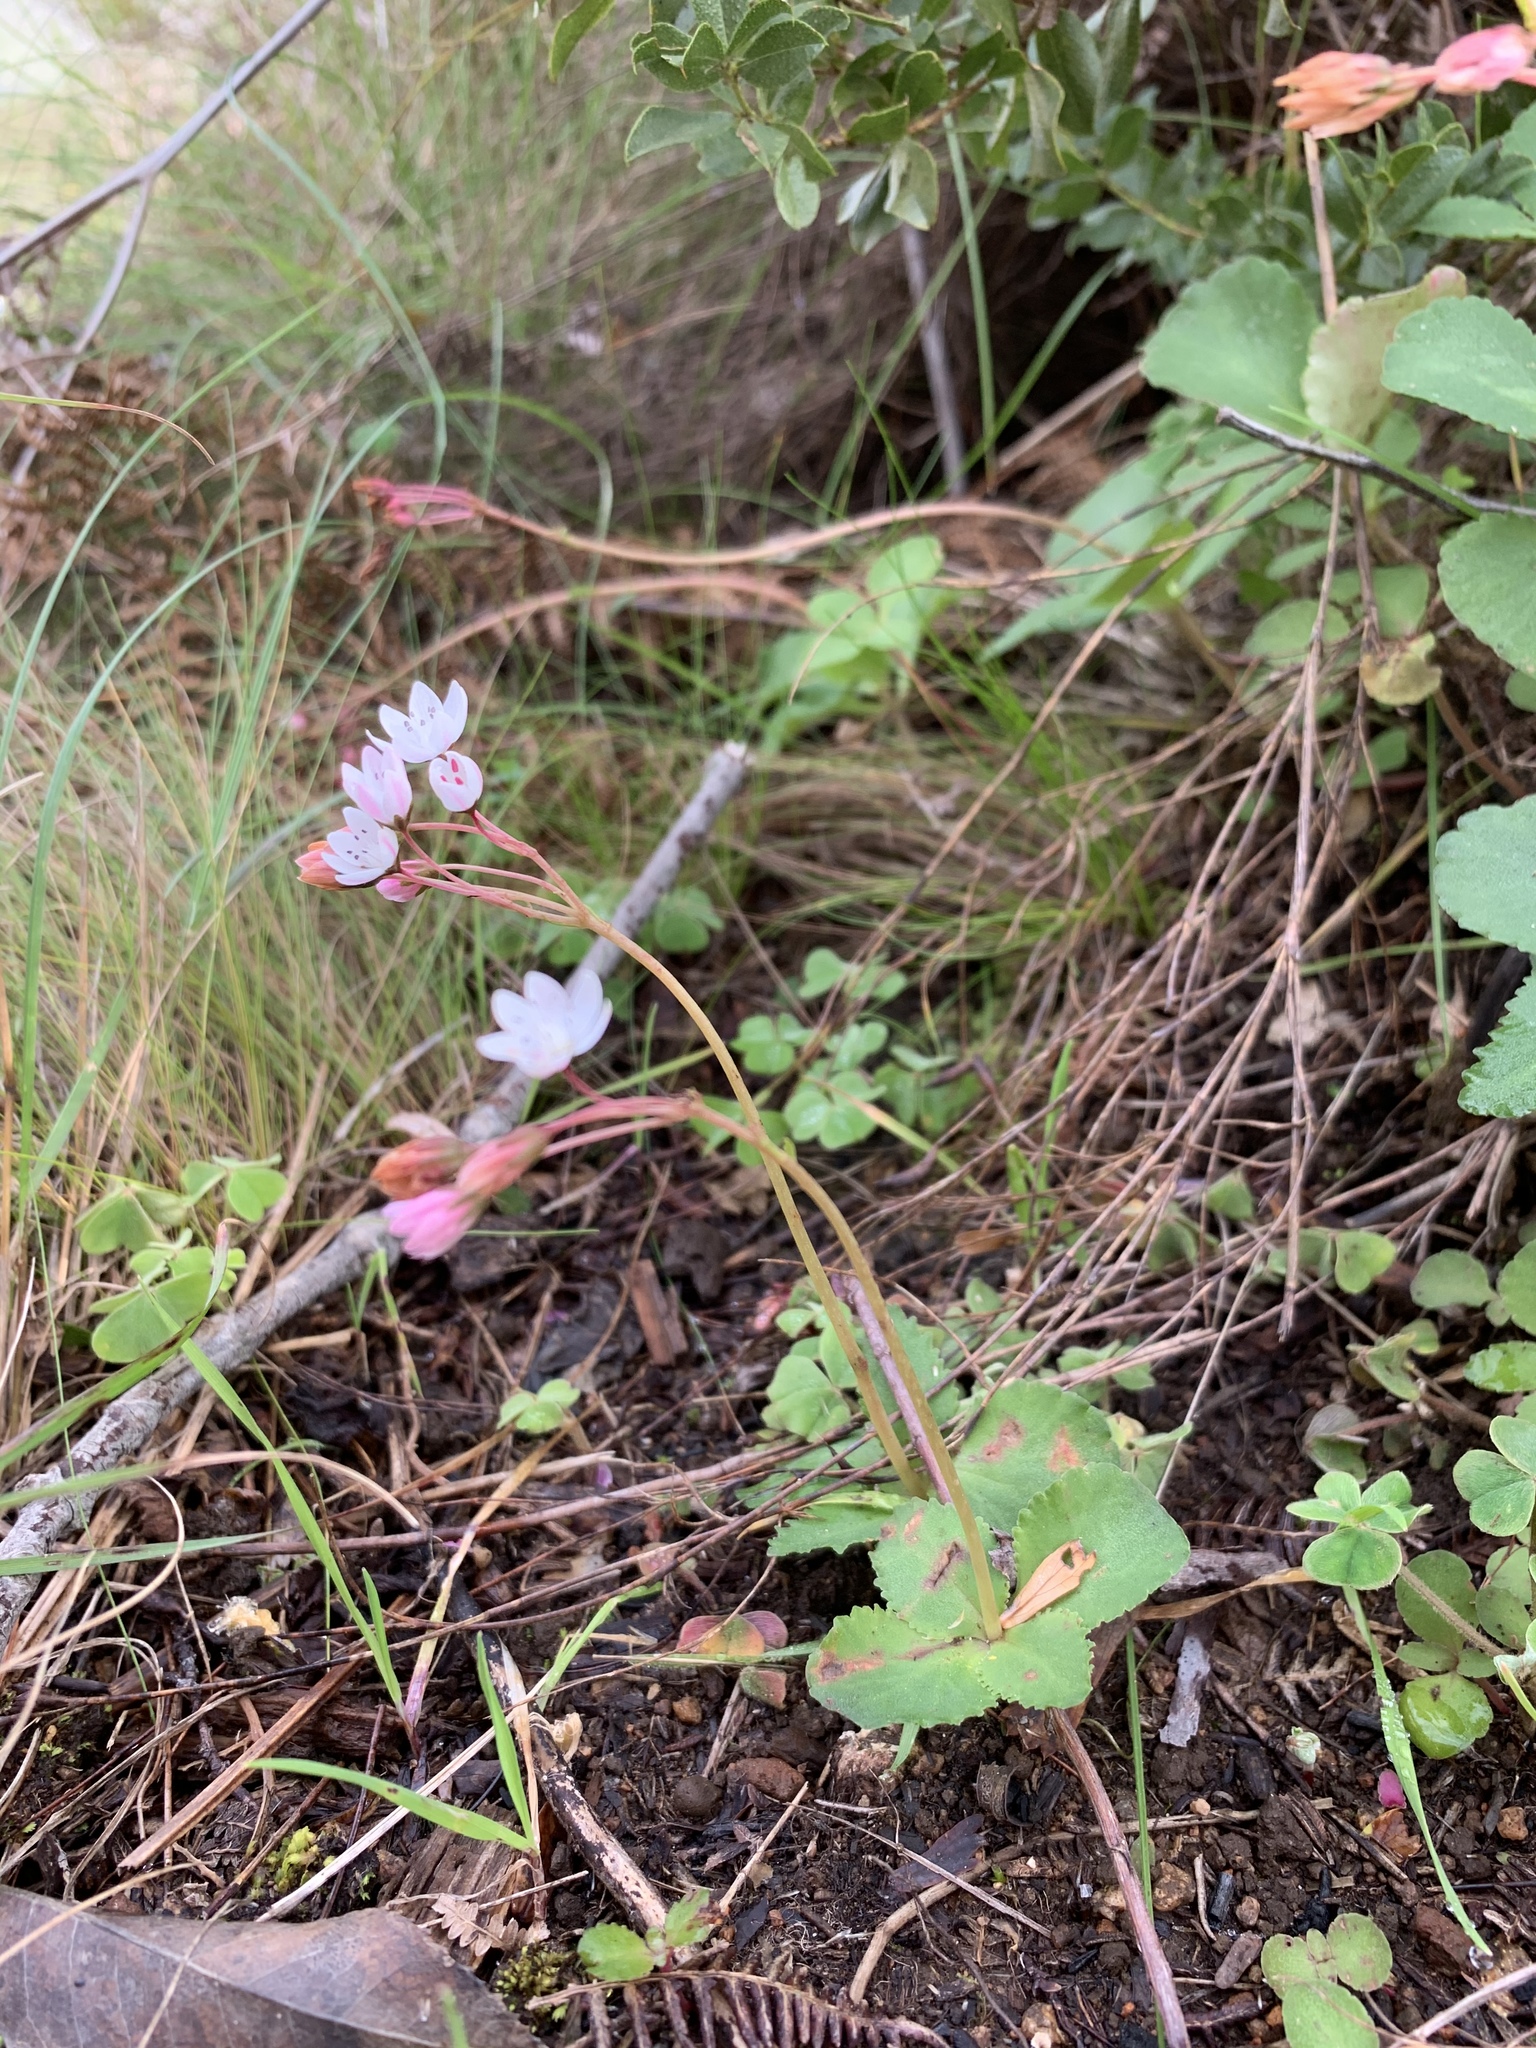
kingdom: Plantae
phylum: Tracheophyta
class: Magnoliopsida
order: Saxifragales
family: Crassulaceae
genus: Crassula
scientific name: Crassula capensis
